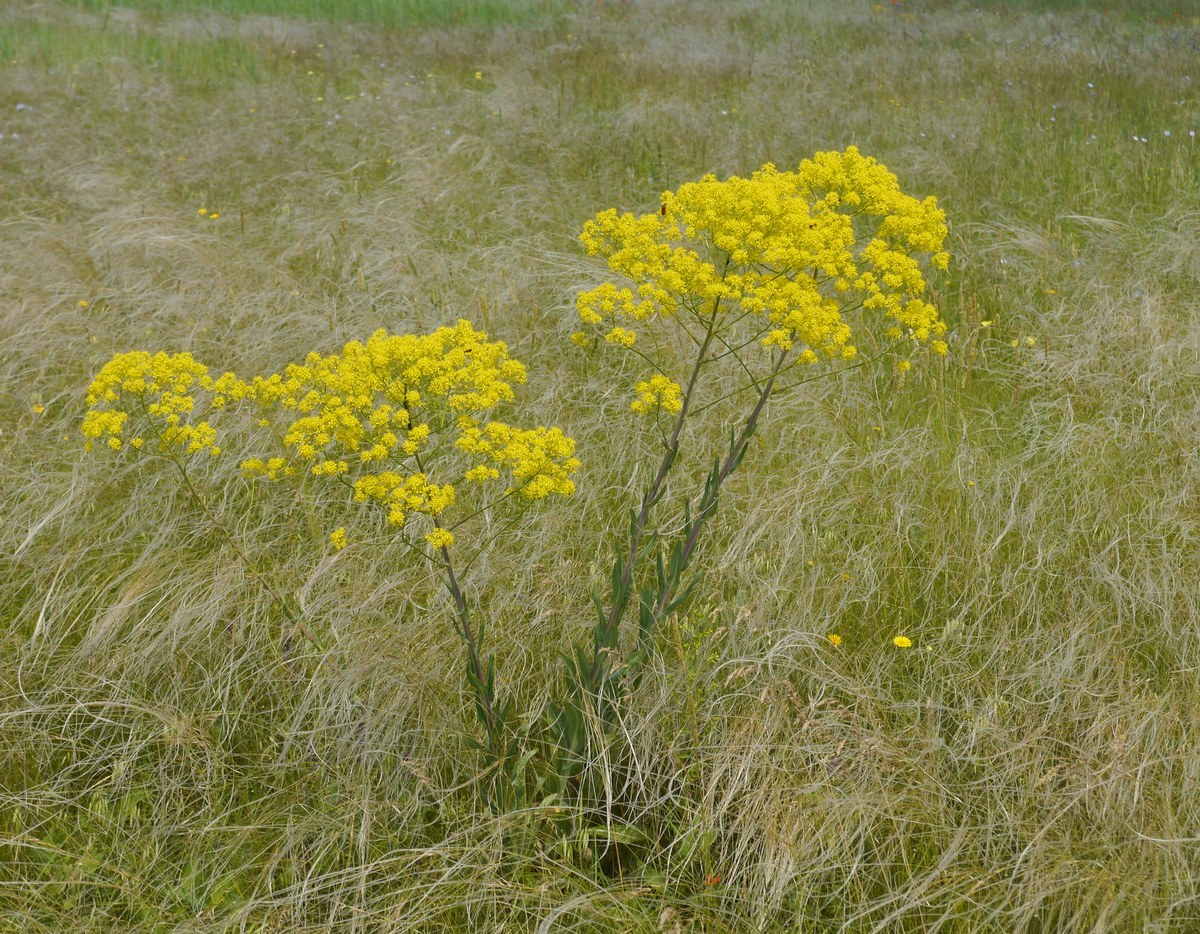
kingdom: Plantae
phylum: Tracheophyta
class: Magnoliopsida
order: Brassicales
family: Brassicaceae
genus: Isatis
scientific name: Isatis tinctoria
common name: Woad
